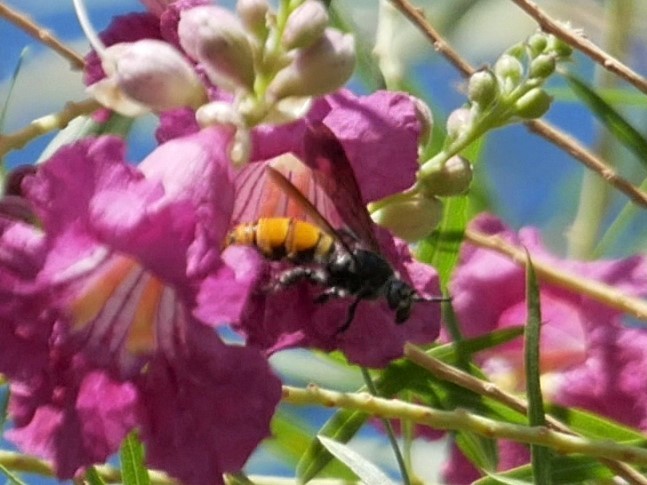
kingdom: Animalia
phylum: Arthropoda
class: Insecta
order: Hymenoptera
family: Scoliidae
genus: Dielis
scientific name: Dielis tolteca
